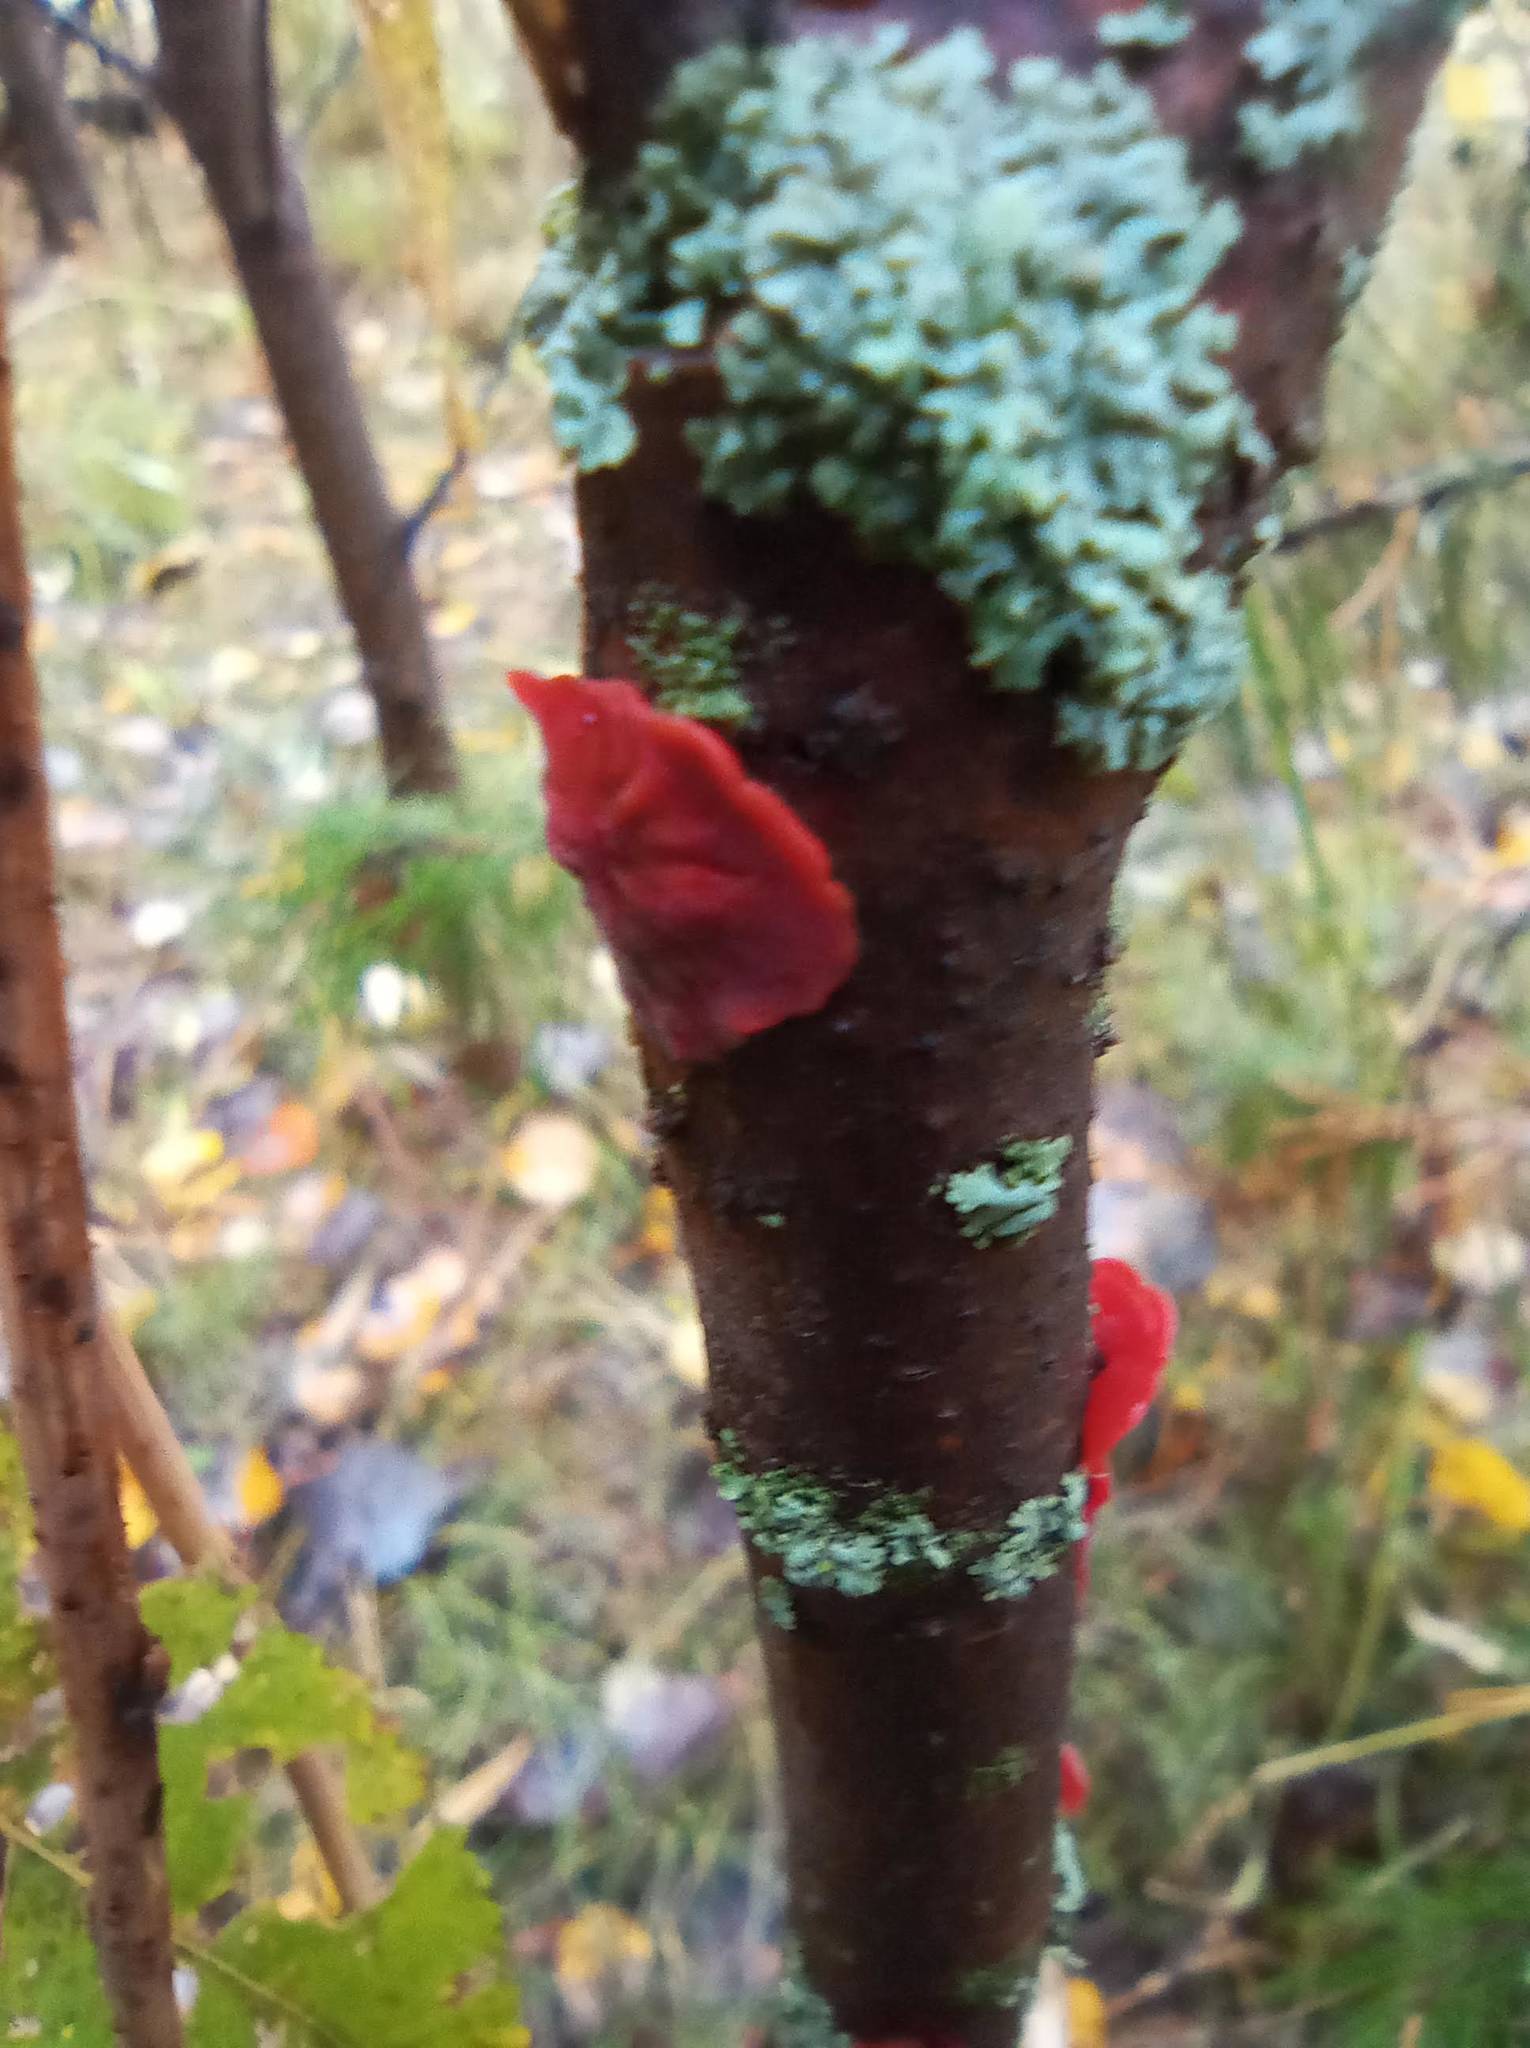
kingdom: Fungi
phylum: Basidiomycota
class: Agaricomycetes
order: Corticiales
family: Vuilleminiaceae
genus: Cytidia
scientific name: Cytidia salicina
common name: Scarlet splash
